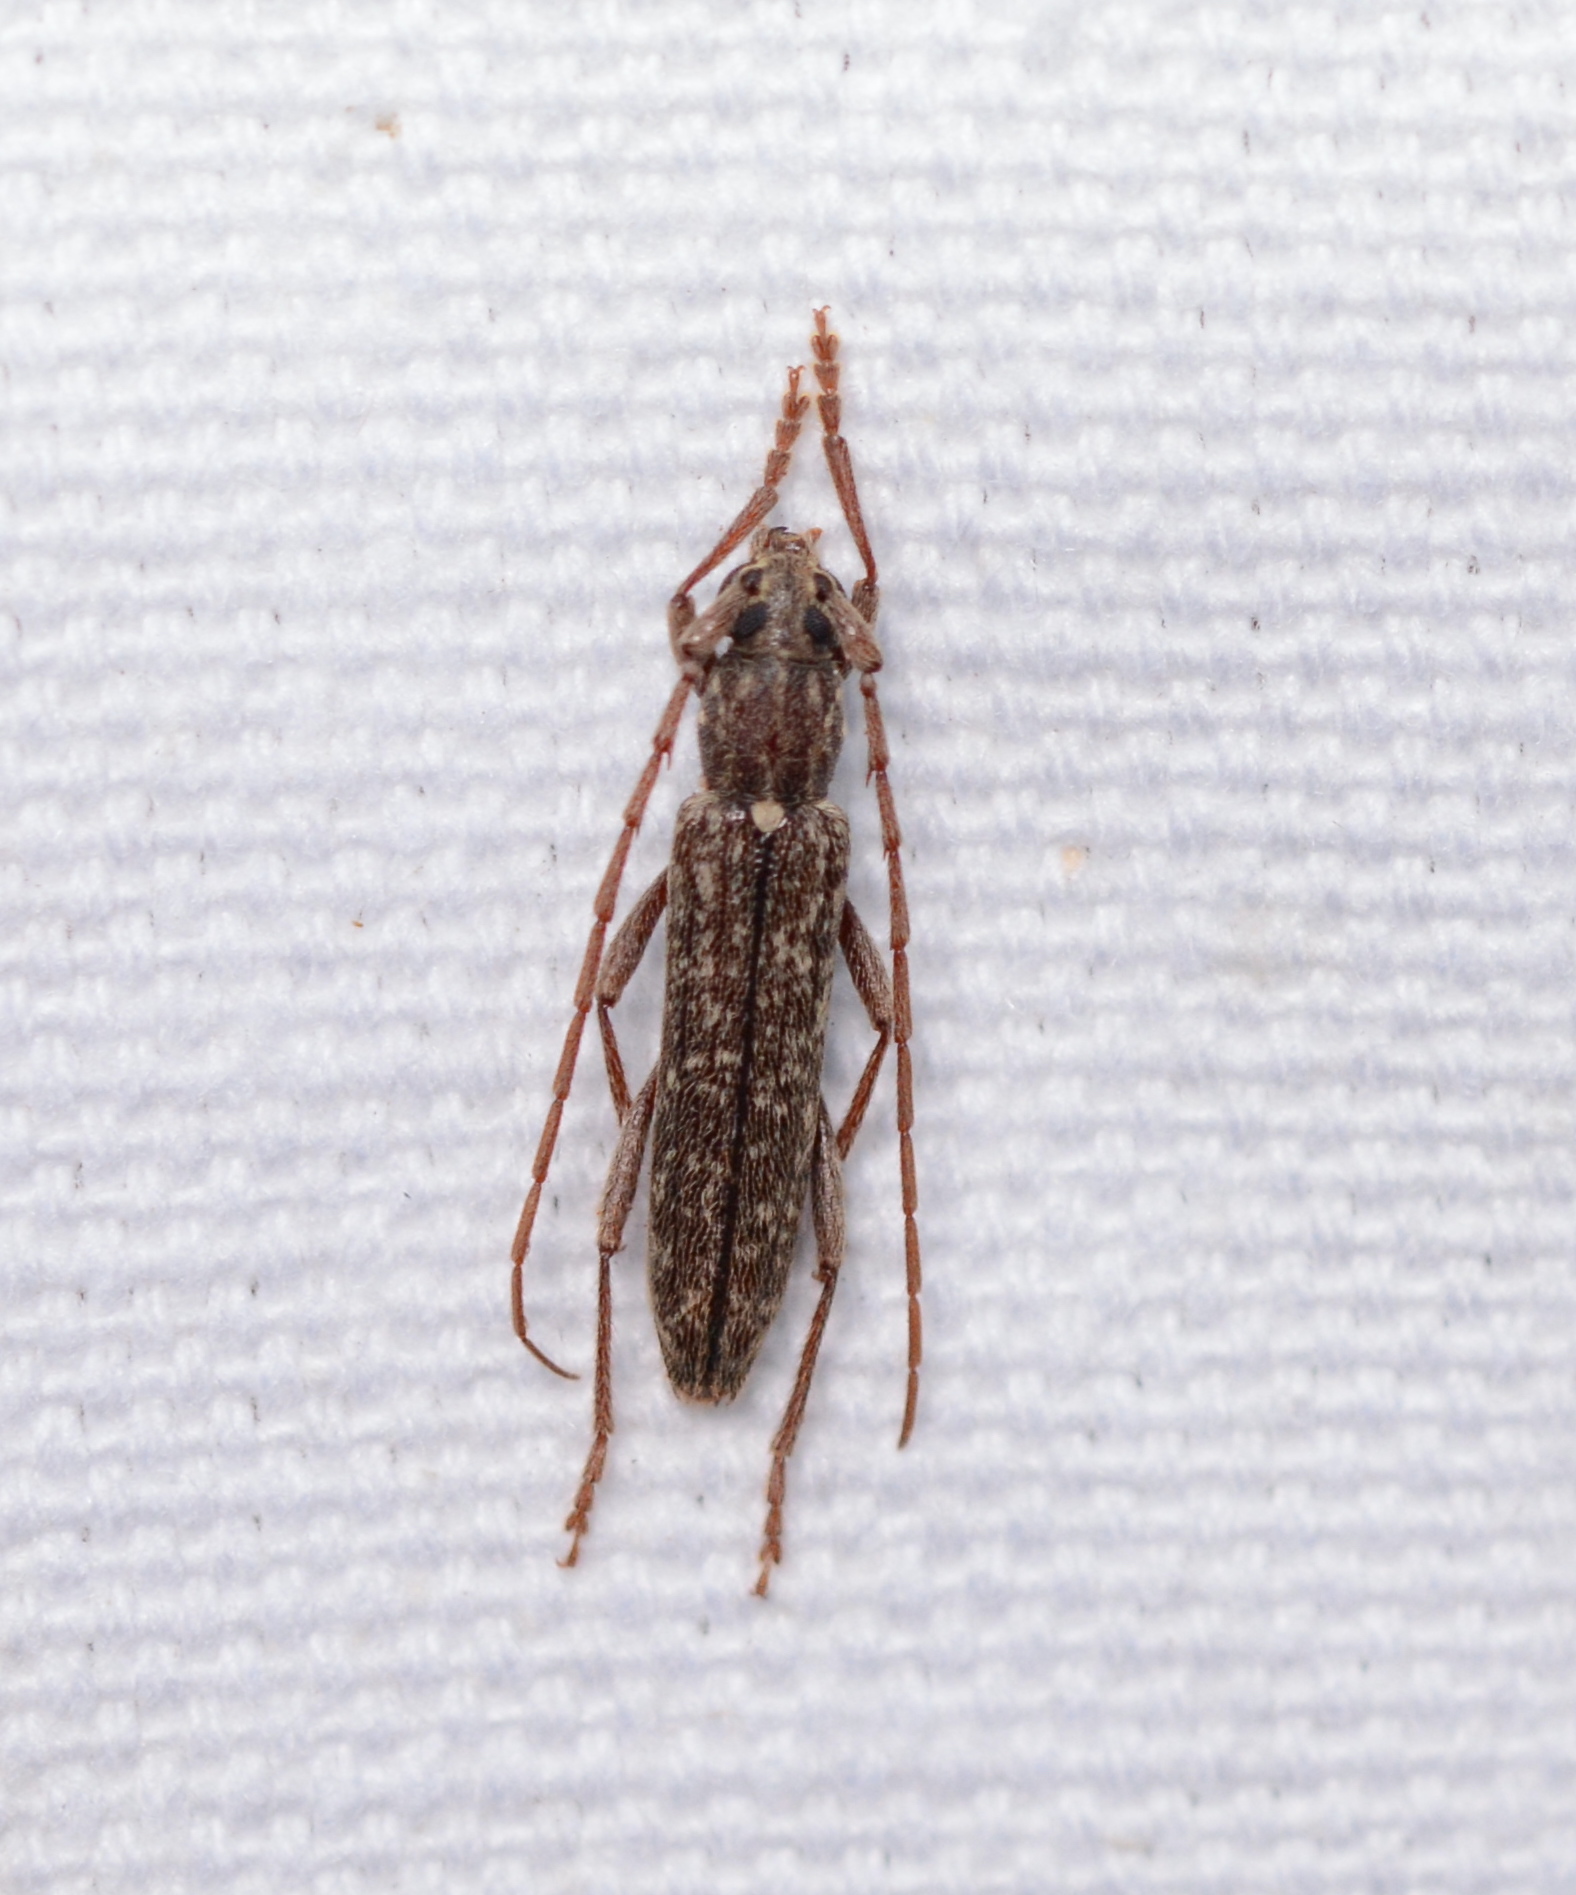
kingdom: Animalia
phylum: Arthropoda
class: Insecta
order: Coleoptera
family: Cerambycidae
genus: Anelaphus
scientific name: Anelaphus villosus
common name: Twig pruner
